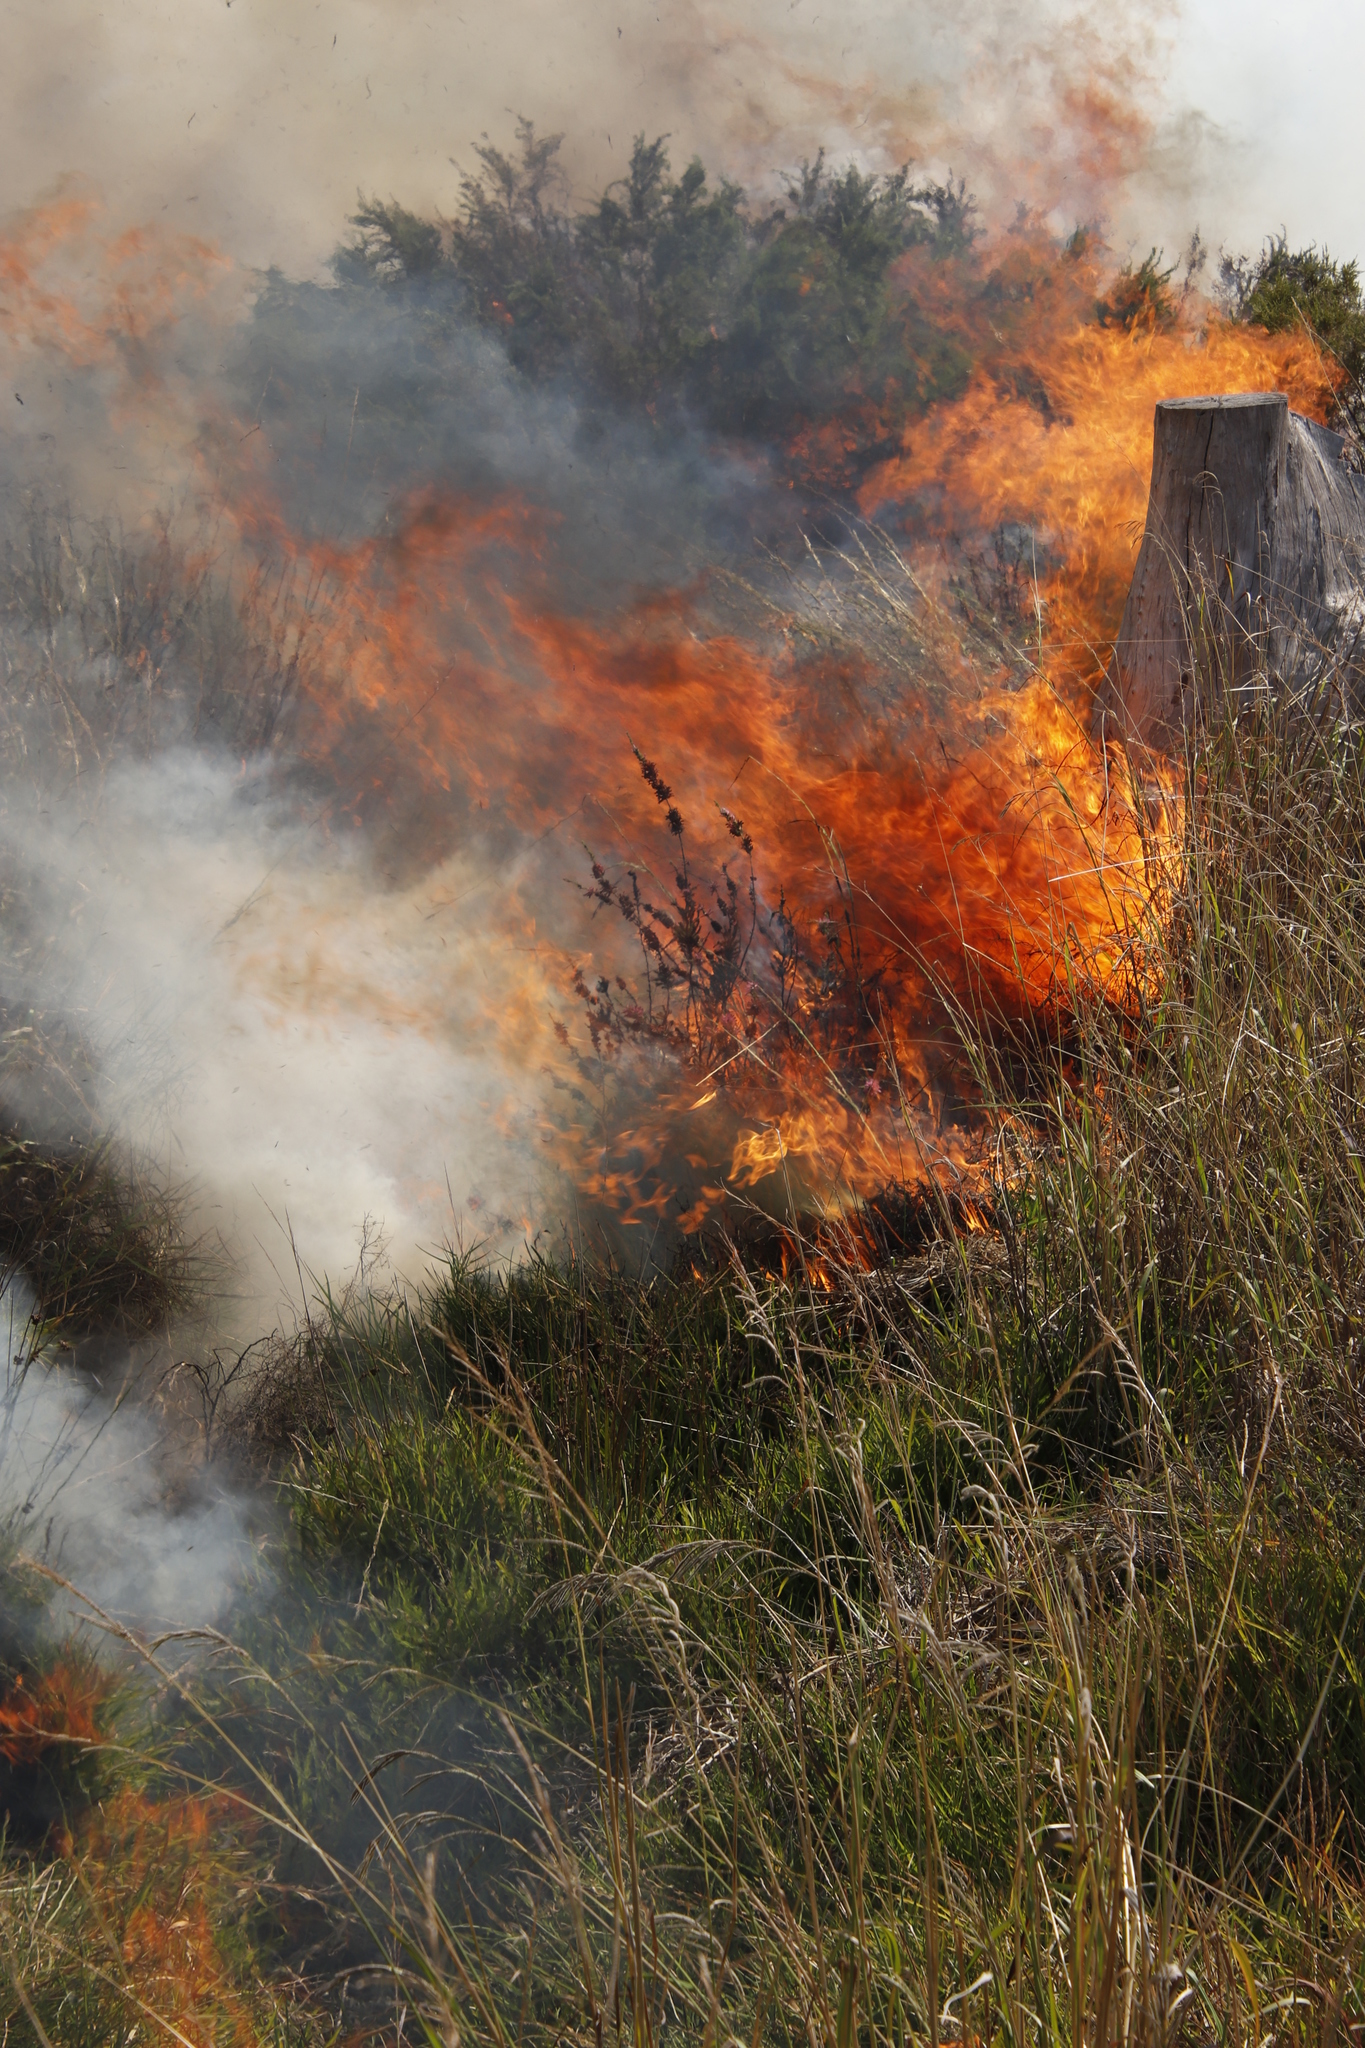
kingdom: Plantae
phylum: Tracheophyta
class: Magnoliopsida
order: Rosales
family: Rosaceae
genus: Cliffortia
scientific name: Cliffortia strobilifera
